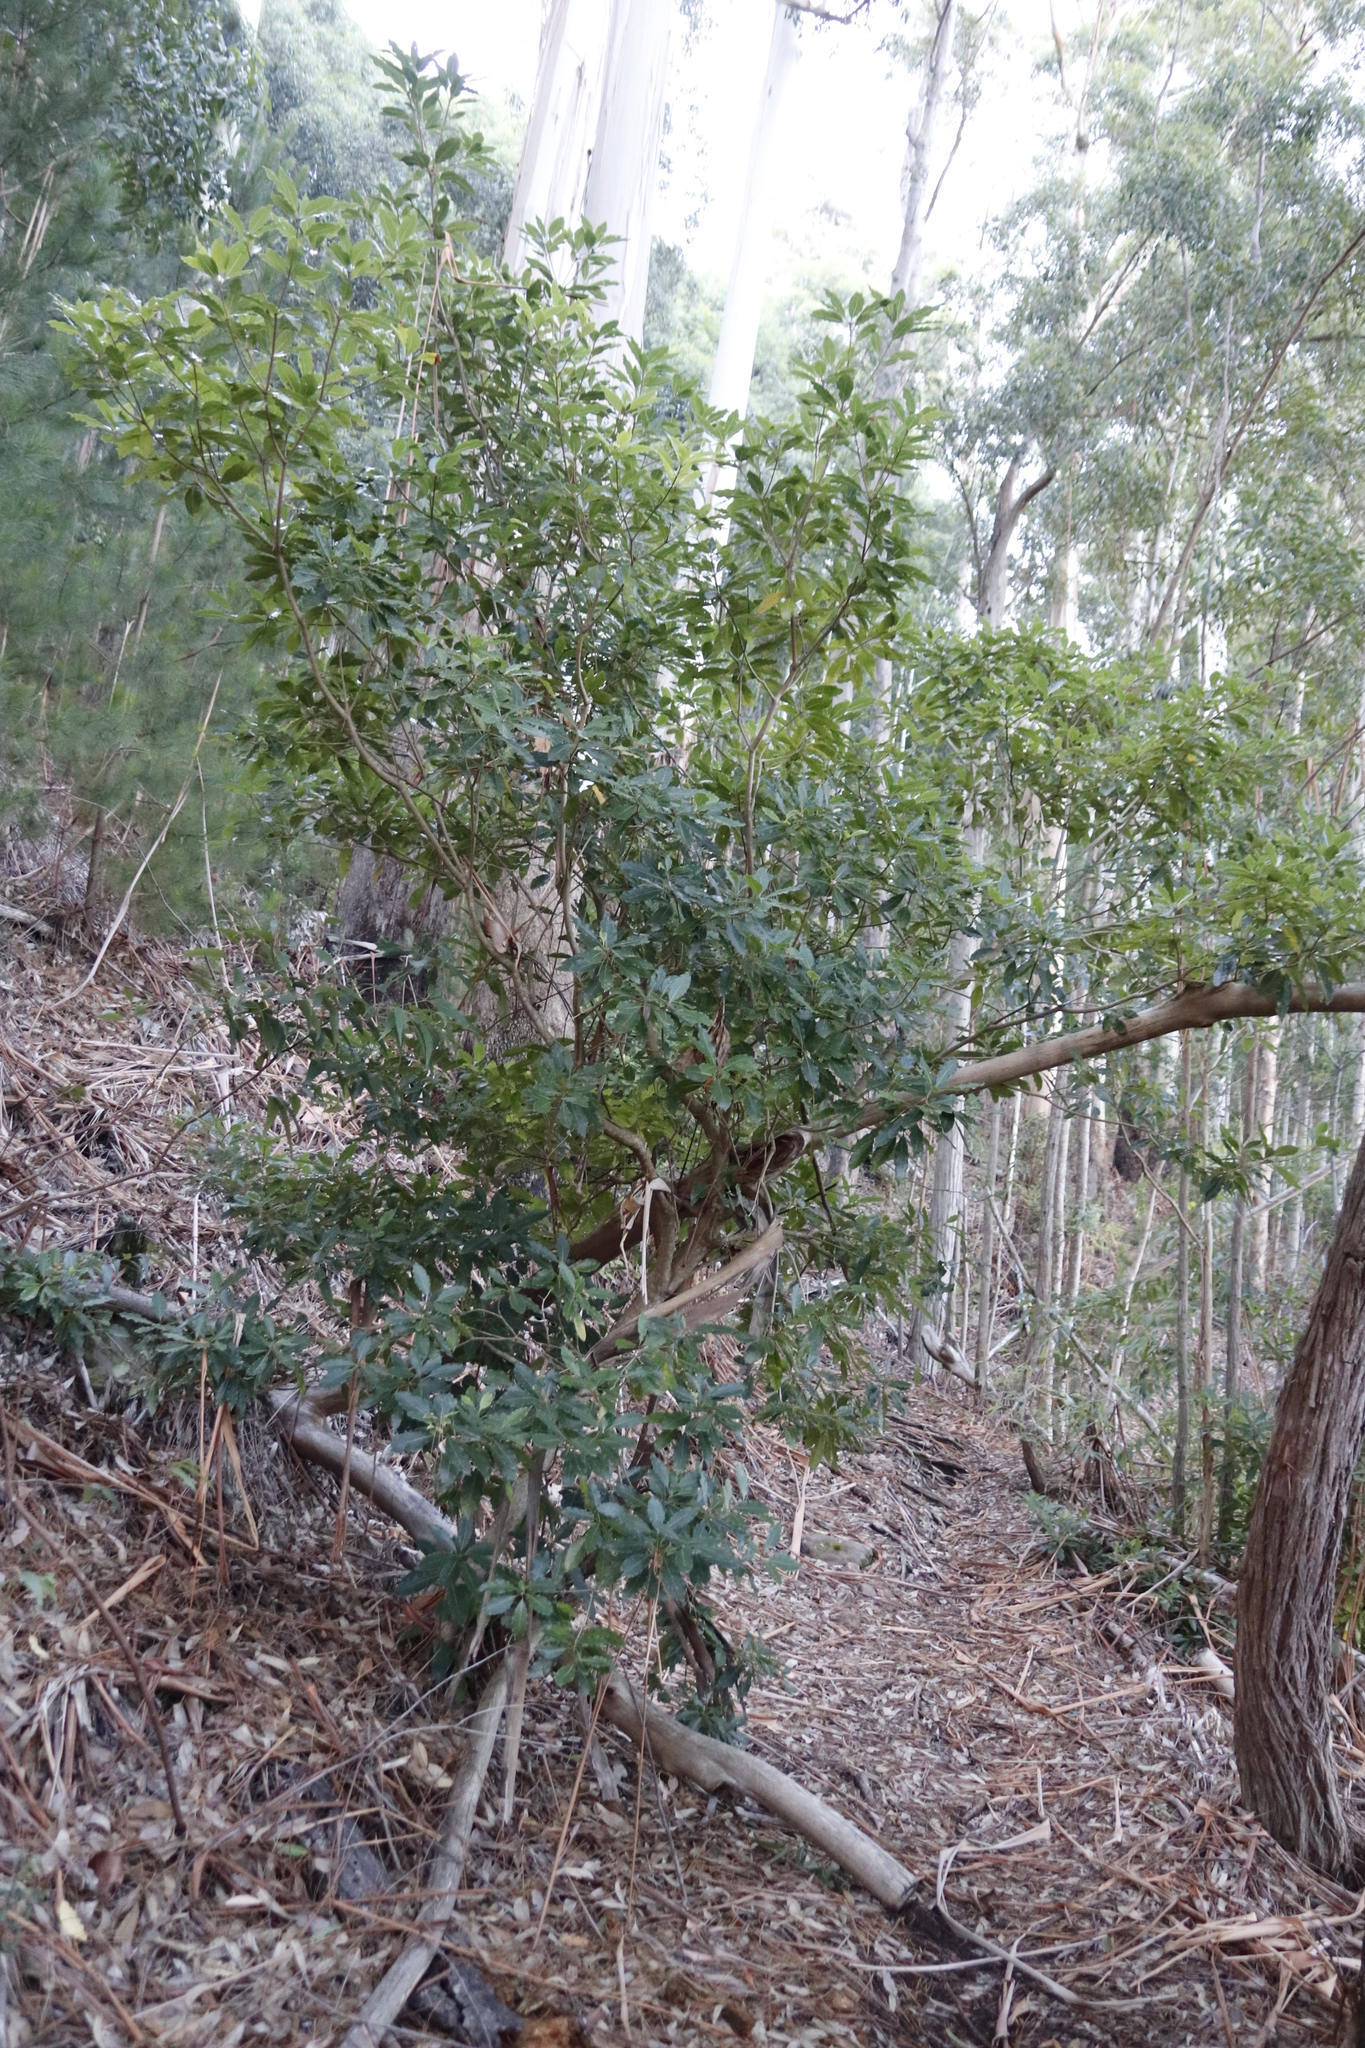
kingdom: Plantae
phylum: Tracheophyta
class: Magnoliopsida
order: Apiales
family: Pittosporaceae
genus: Pittosporum
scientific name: Pittosporum undulatum
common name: Australian cheesewood
